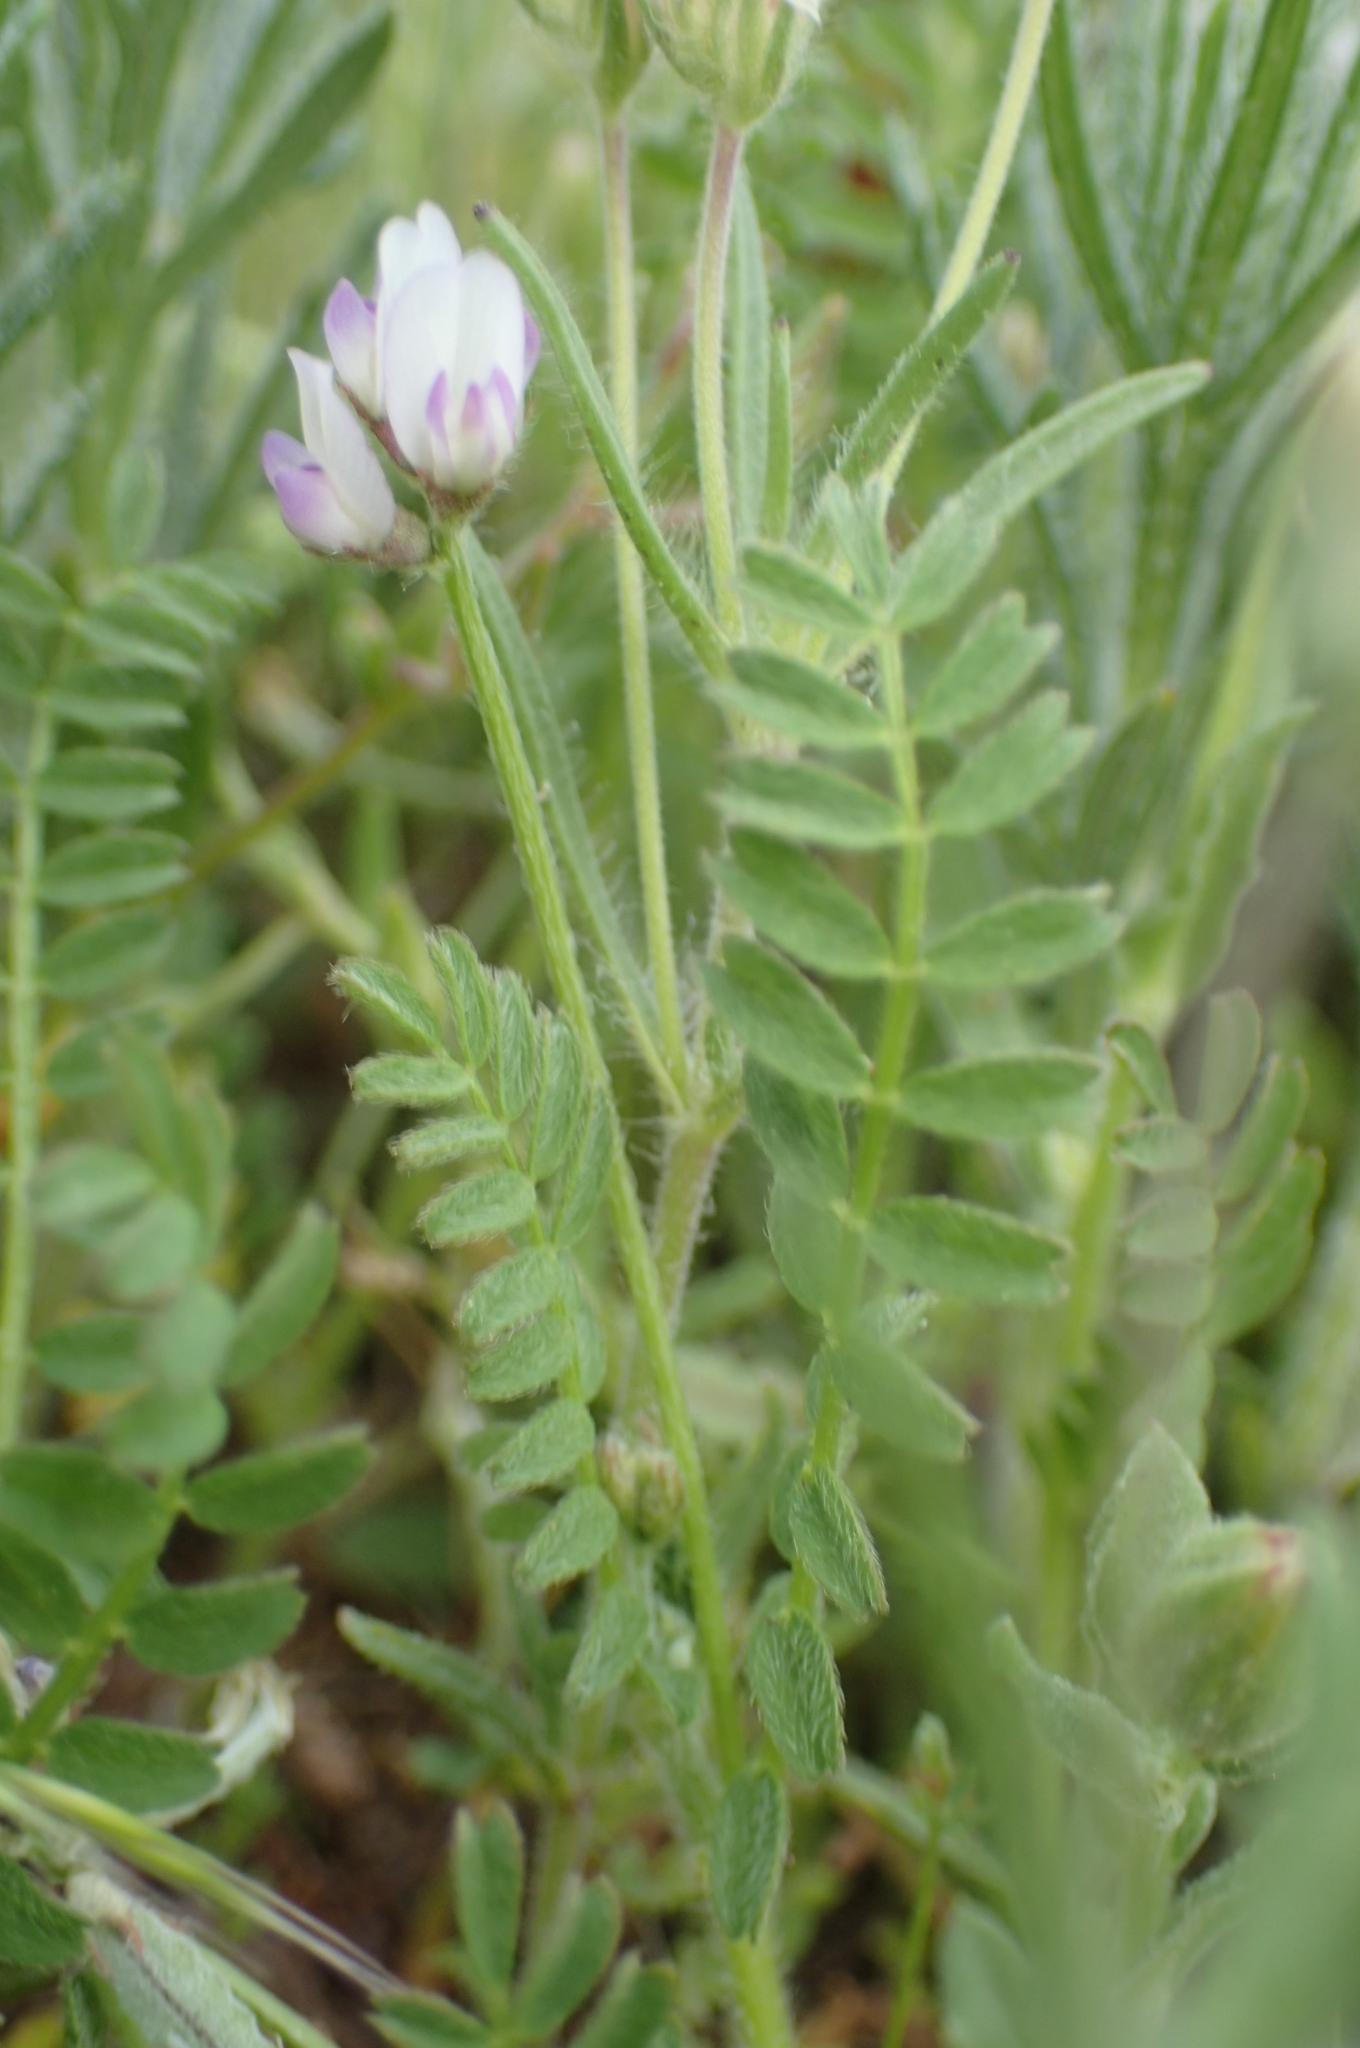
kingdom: Plantae
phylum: Tracheophyta
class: Magnoliopsida
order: Fabales
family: Fabaceae
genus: Biserrula
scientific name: Biserrula pelecinus
